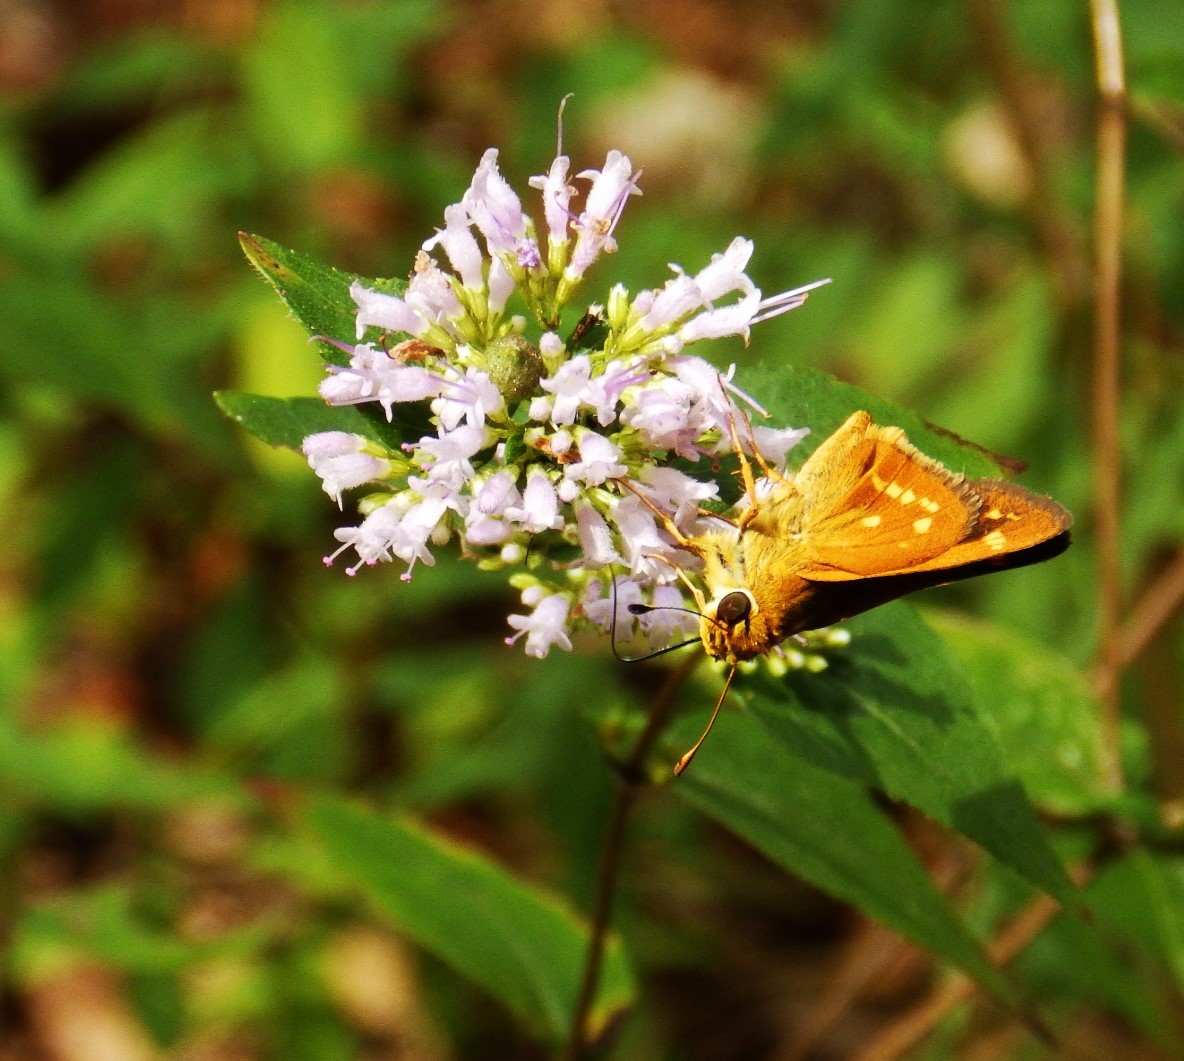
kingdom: Animalia
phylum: Arthropoda
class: Insecta
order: Lepidoptera
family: Hesperiidae
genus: Hesperia
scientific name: Hesperia leonardus
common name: Leonard's skipper
